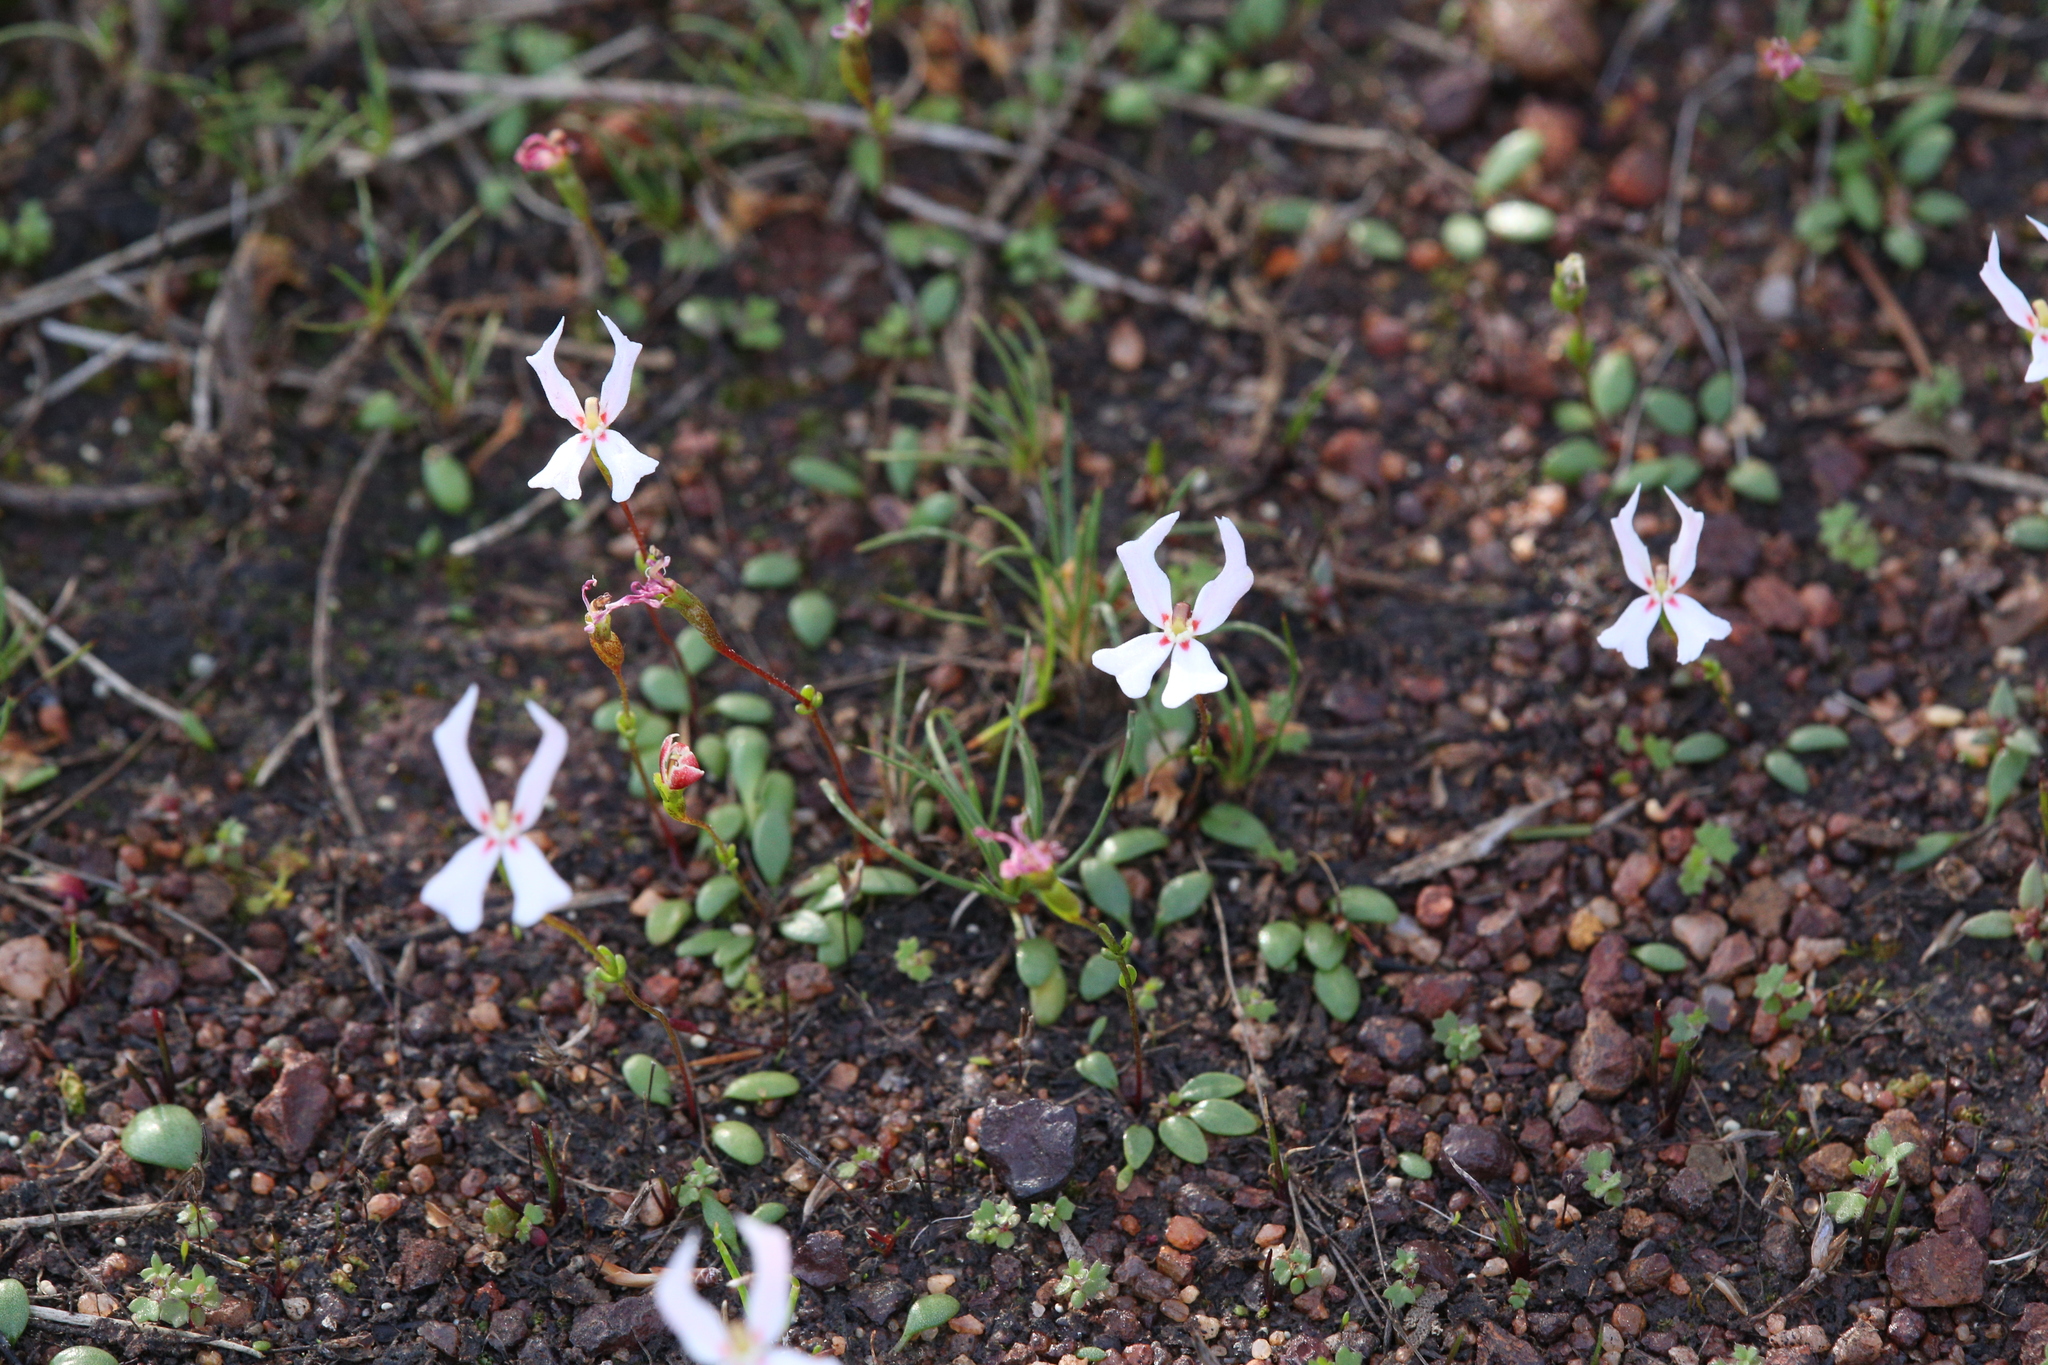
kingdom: Plantae
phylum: Tracheophyta
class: Magnoliopsida
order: Asterales
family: Stylidiaceae
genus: Stylidium
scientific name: Stylidium emarginatum
